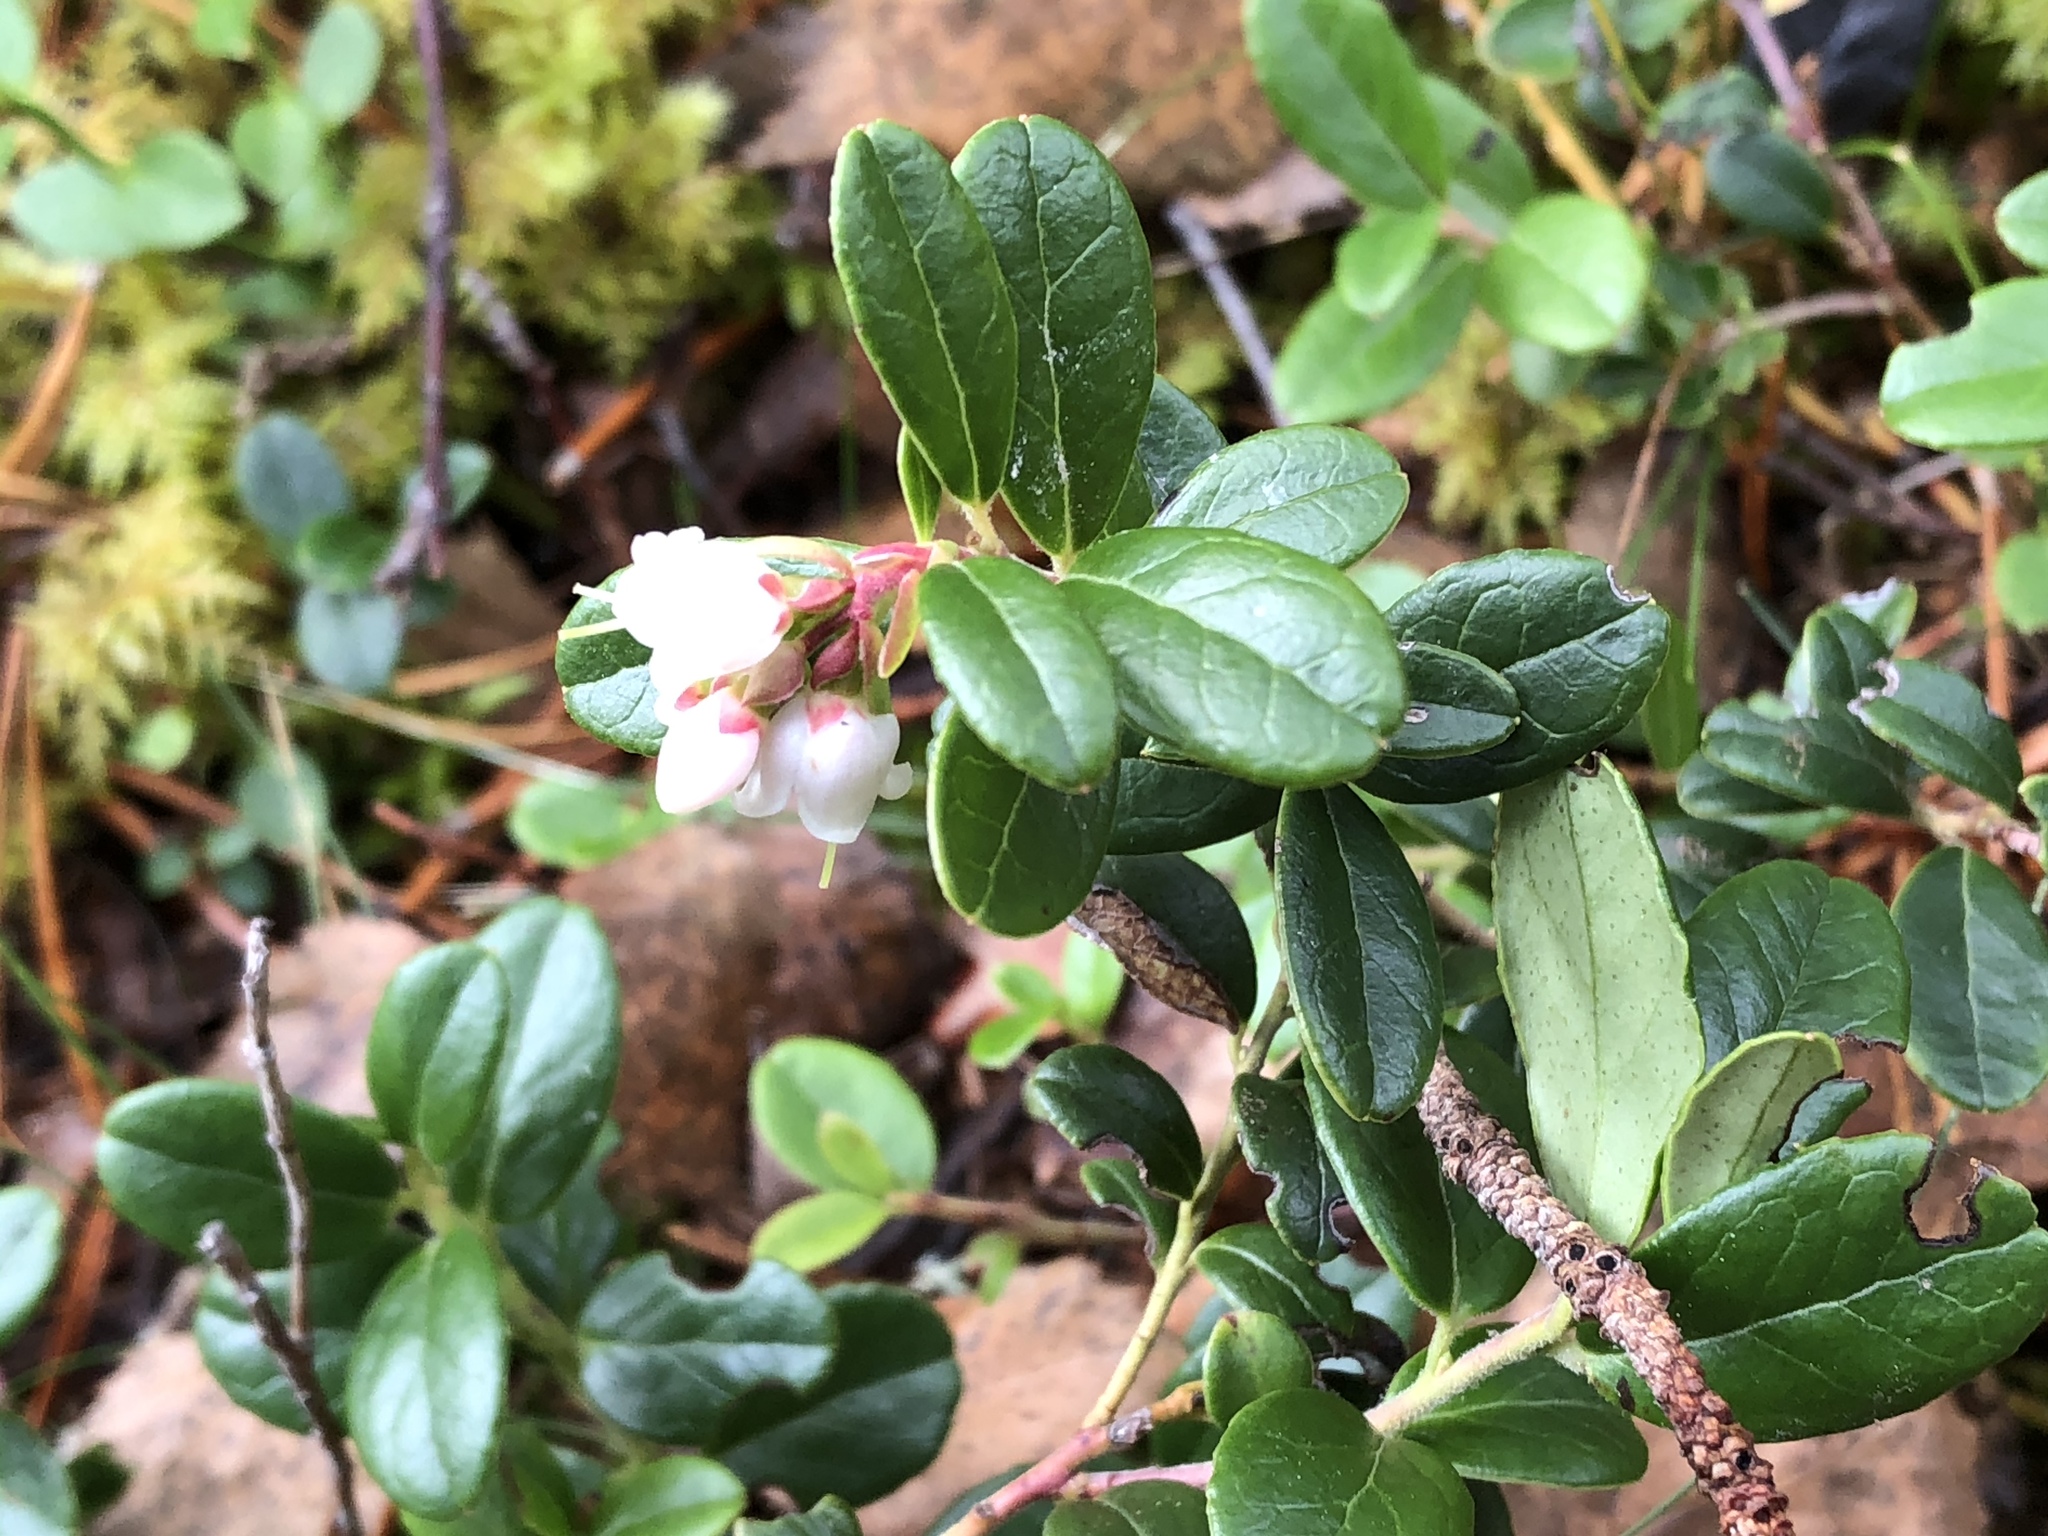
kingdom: Plantae
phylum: Tracheophyta
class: Magnoliopsida
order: Ericales
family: Ericaceae
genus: Vaccinium
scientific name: Vaccinium vitis-idaea
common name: Cowberry
